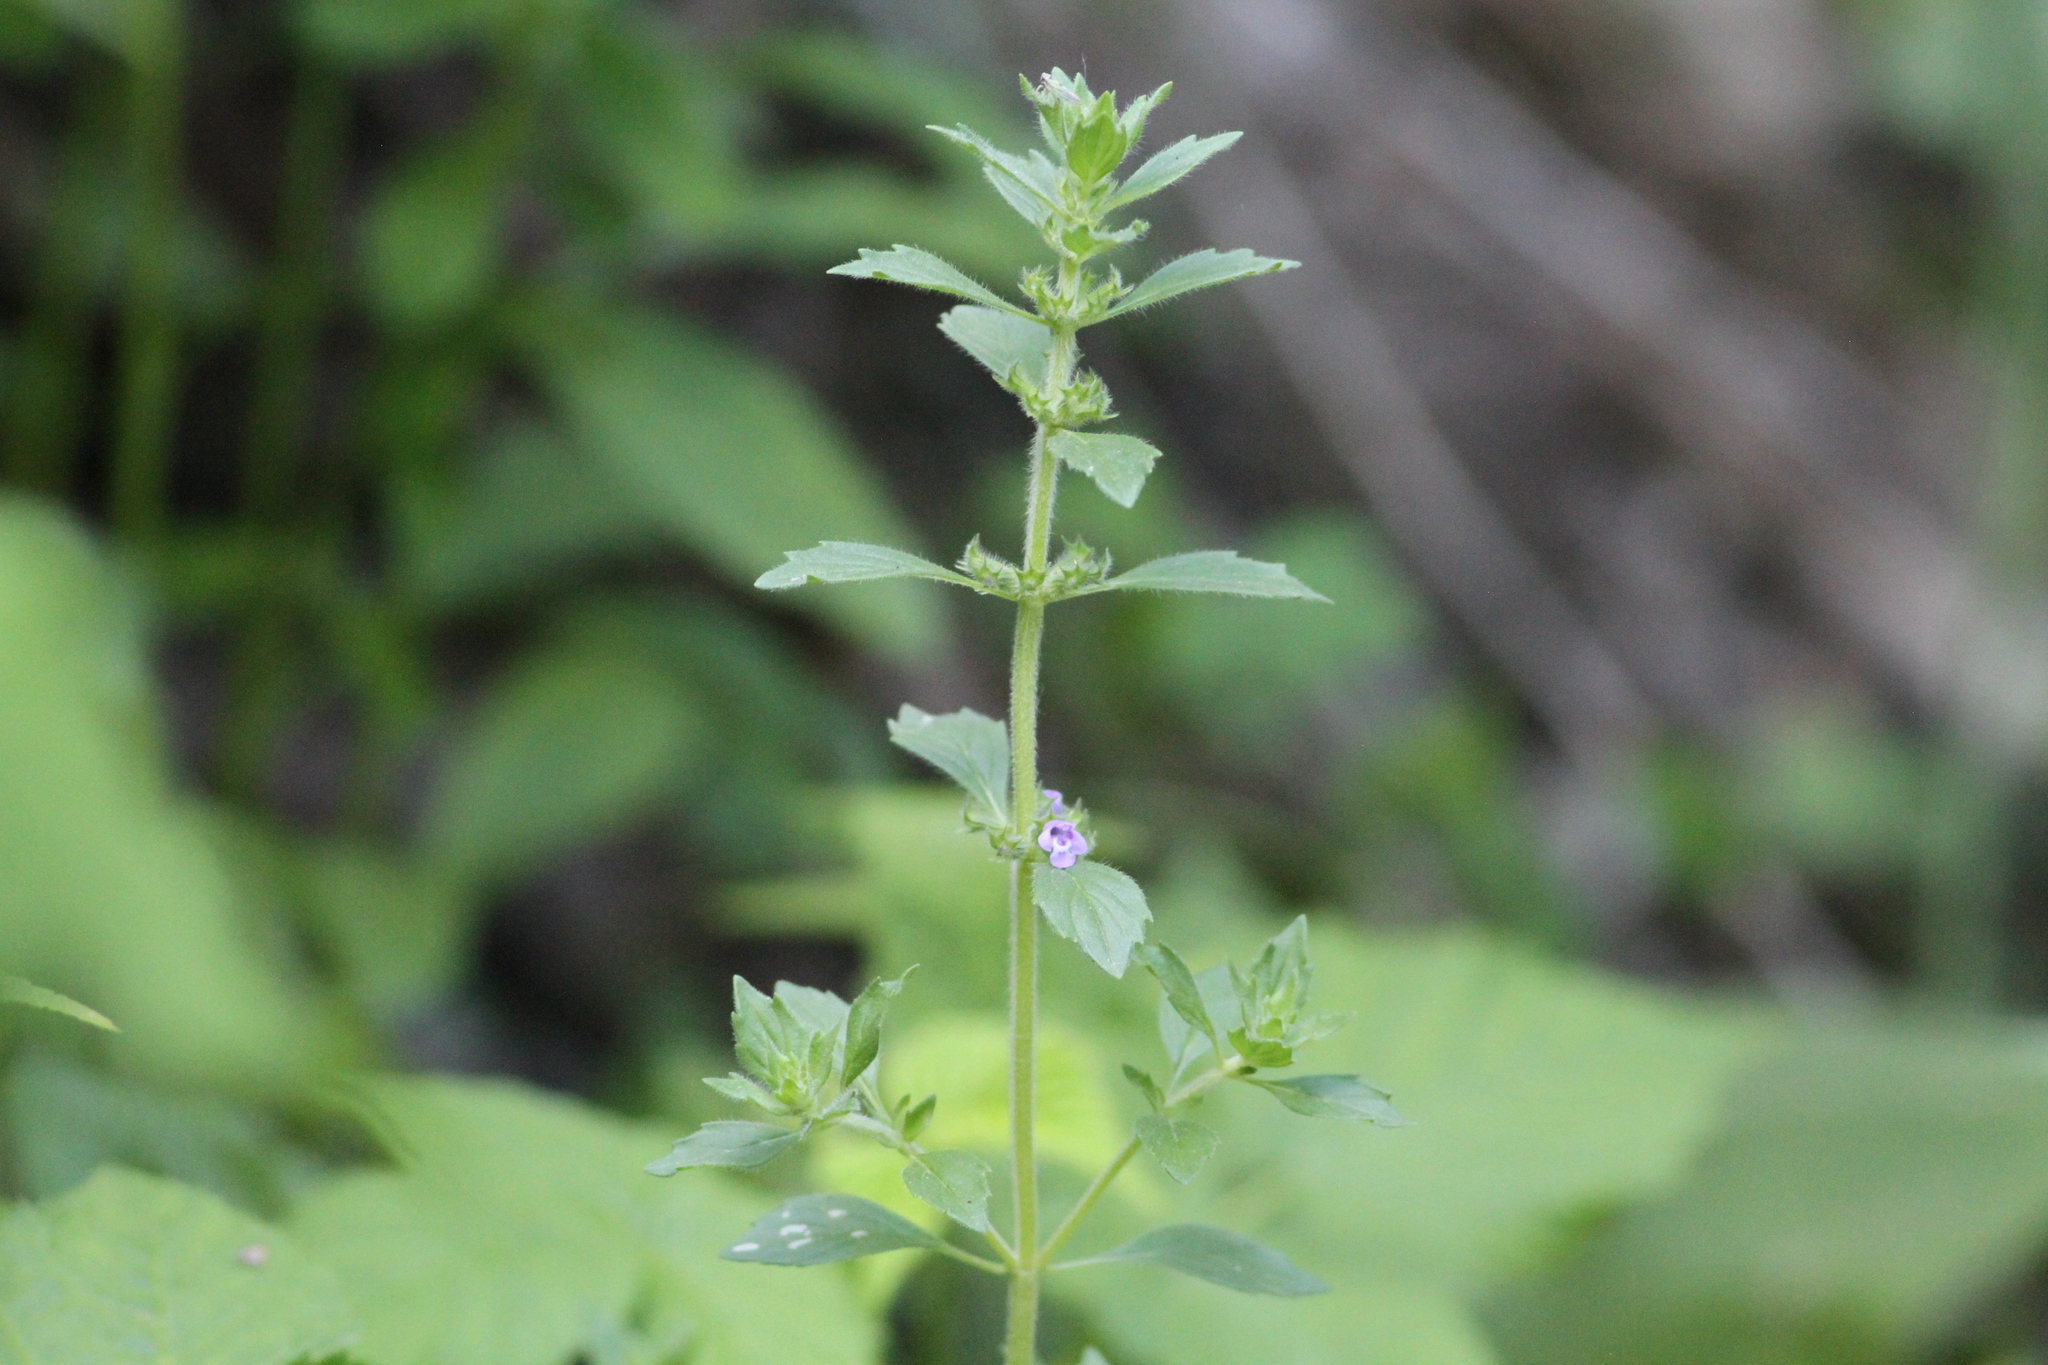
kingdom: Plantae
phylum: Tracheophyta
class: Magnoliopsida
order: Lamiales
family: Lamiaceae
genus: Clinopodium
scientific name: Clinopodium acinos
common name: Basil thyme
